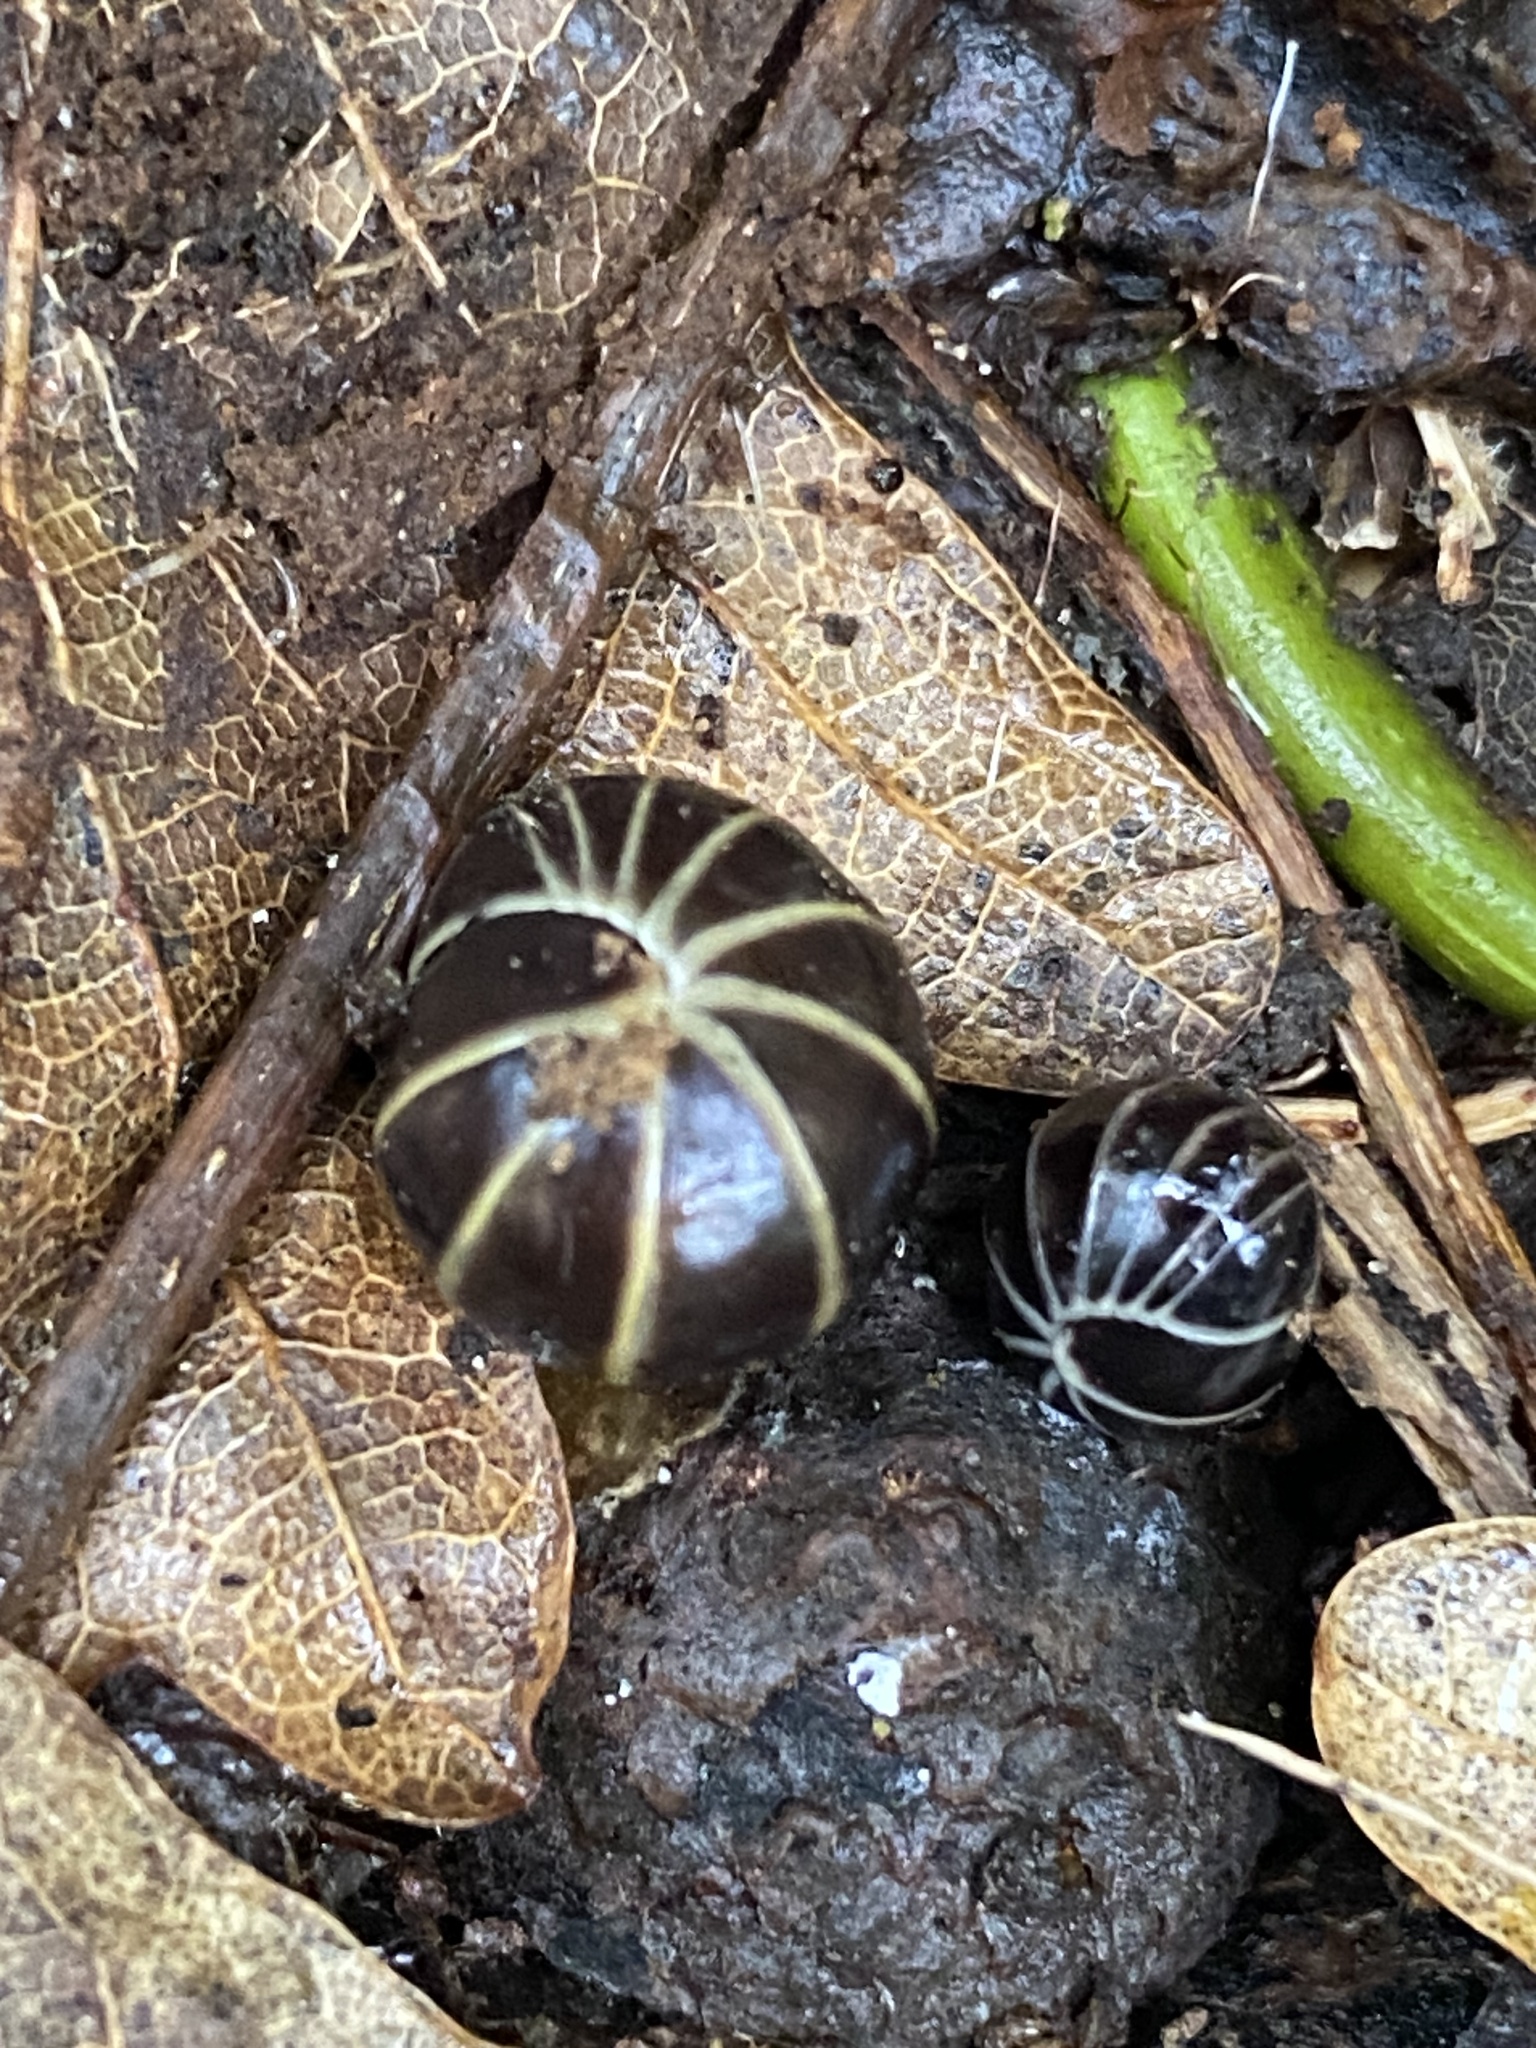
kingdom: Animalia
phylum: Arthropoda
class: Diplopoda
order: Glomerida
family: Glomeridae
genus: Glomeris
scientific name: Glomeris marginata
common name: Bordered pill millipede
